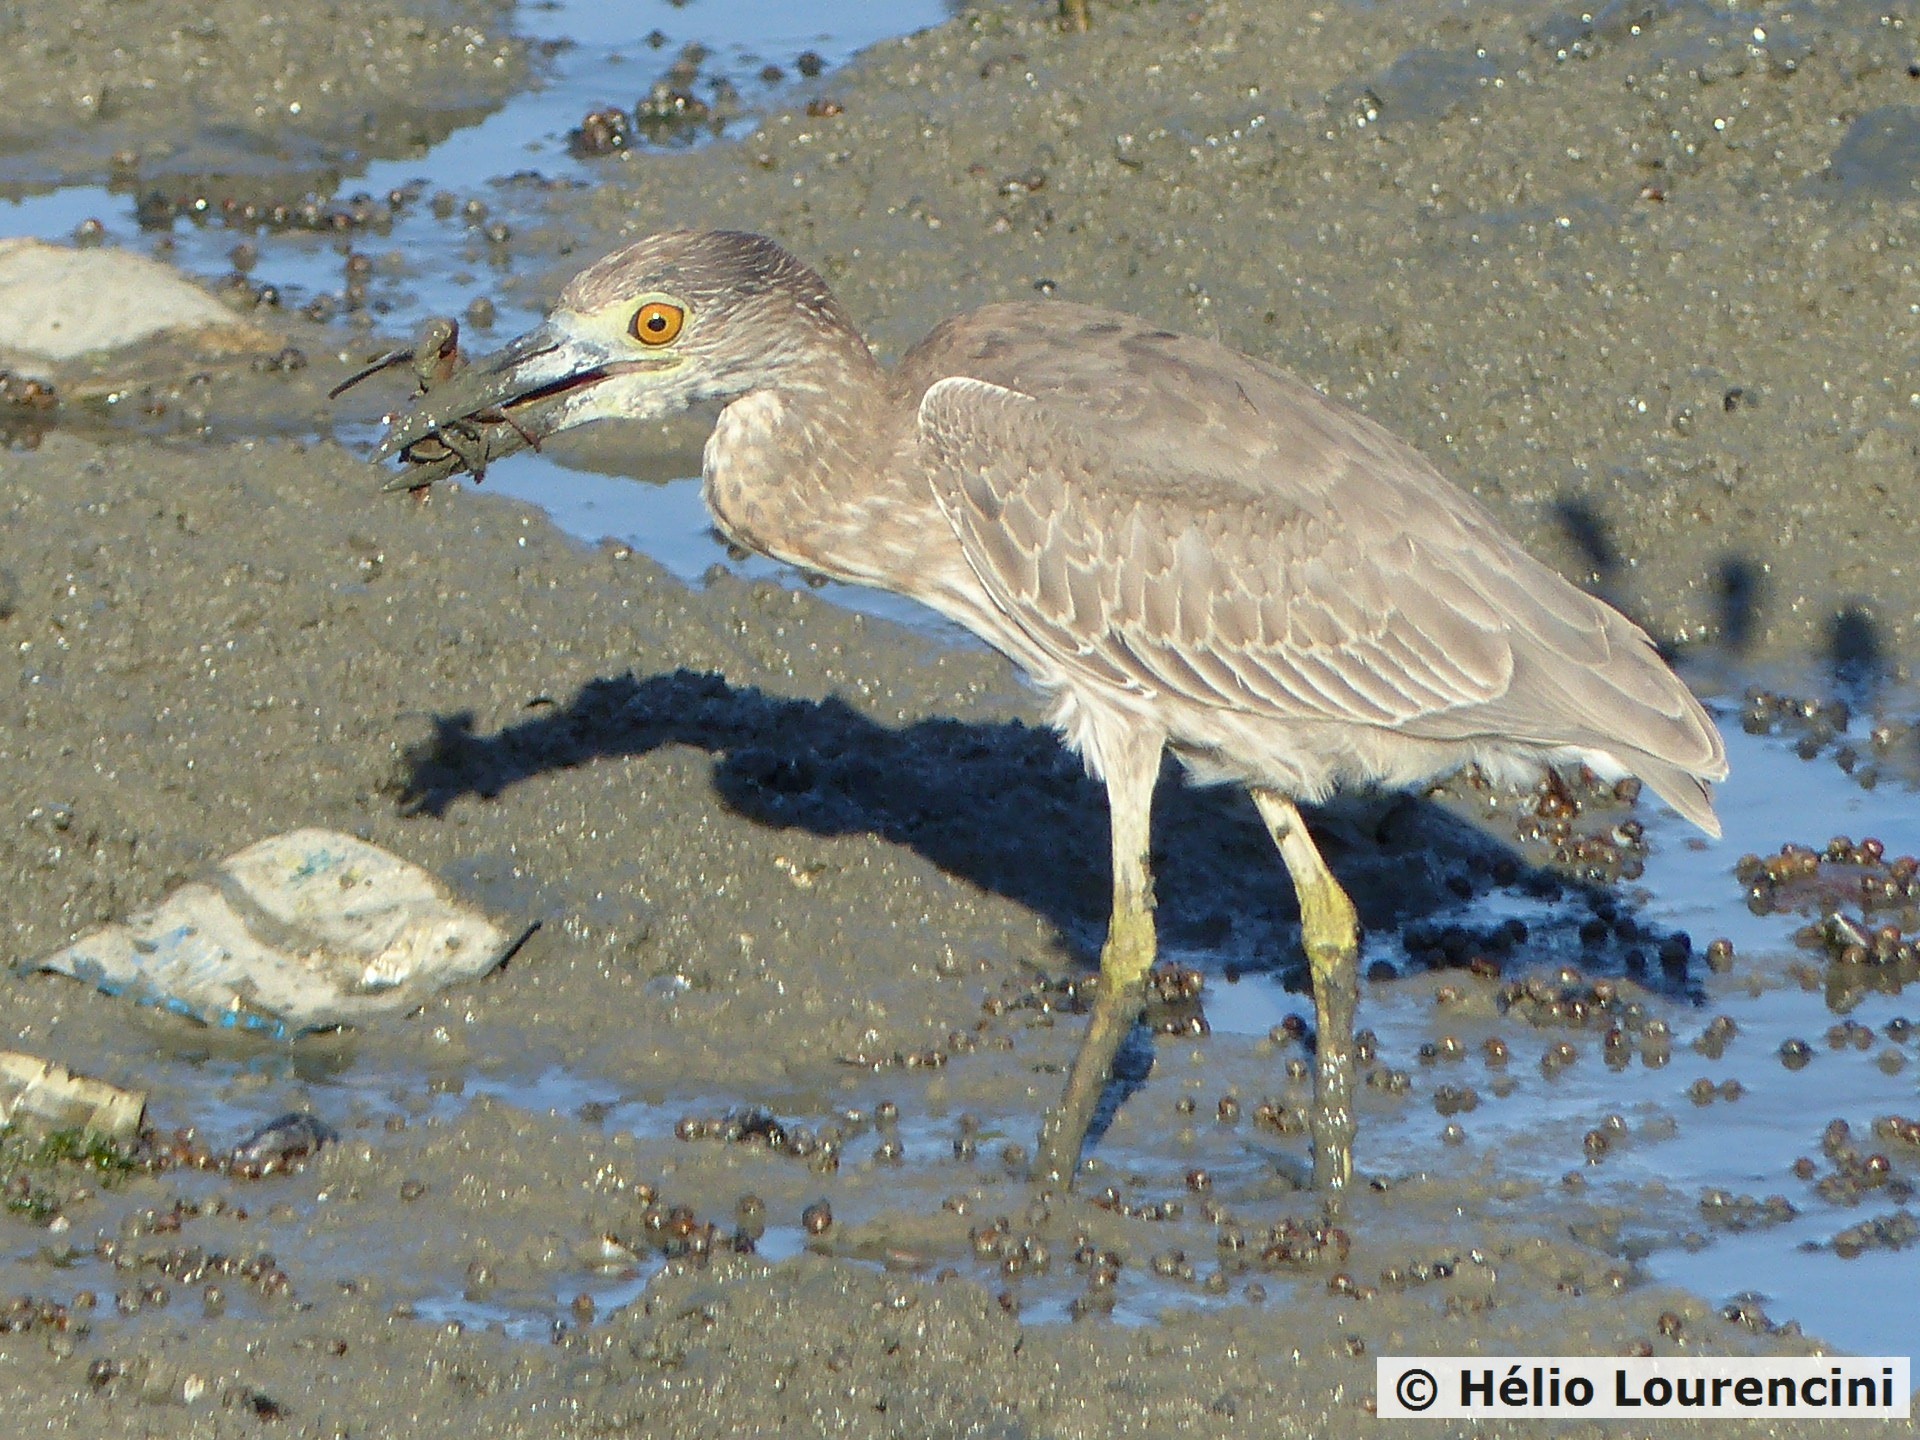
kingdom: Animalia
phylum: Chordata
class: Aves
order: Pelecaniformes
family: Ardeidae
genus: Nyctanassa
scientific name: Nyctanassa violacea
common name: Yellow-crowned night heron
